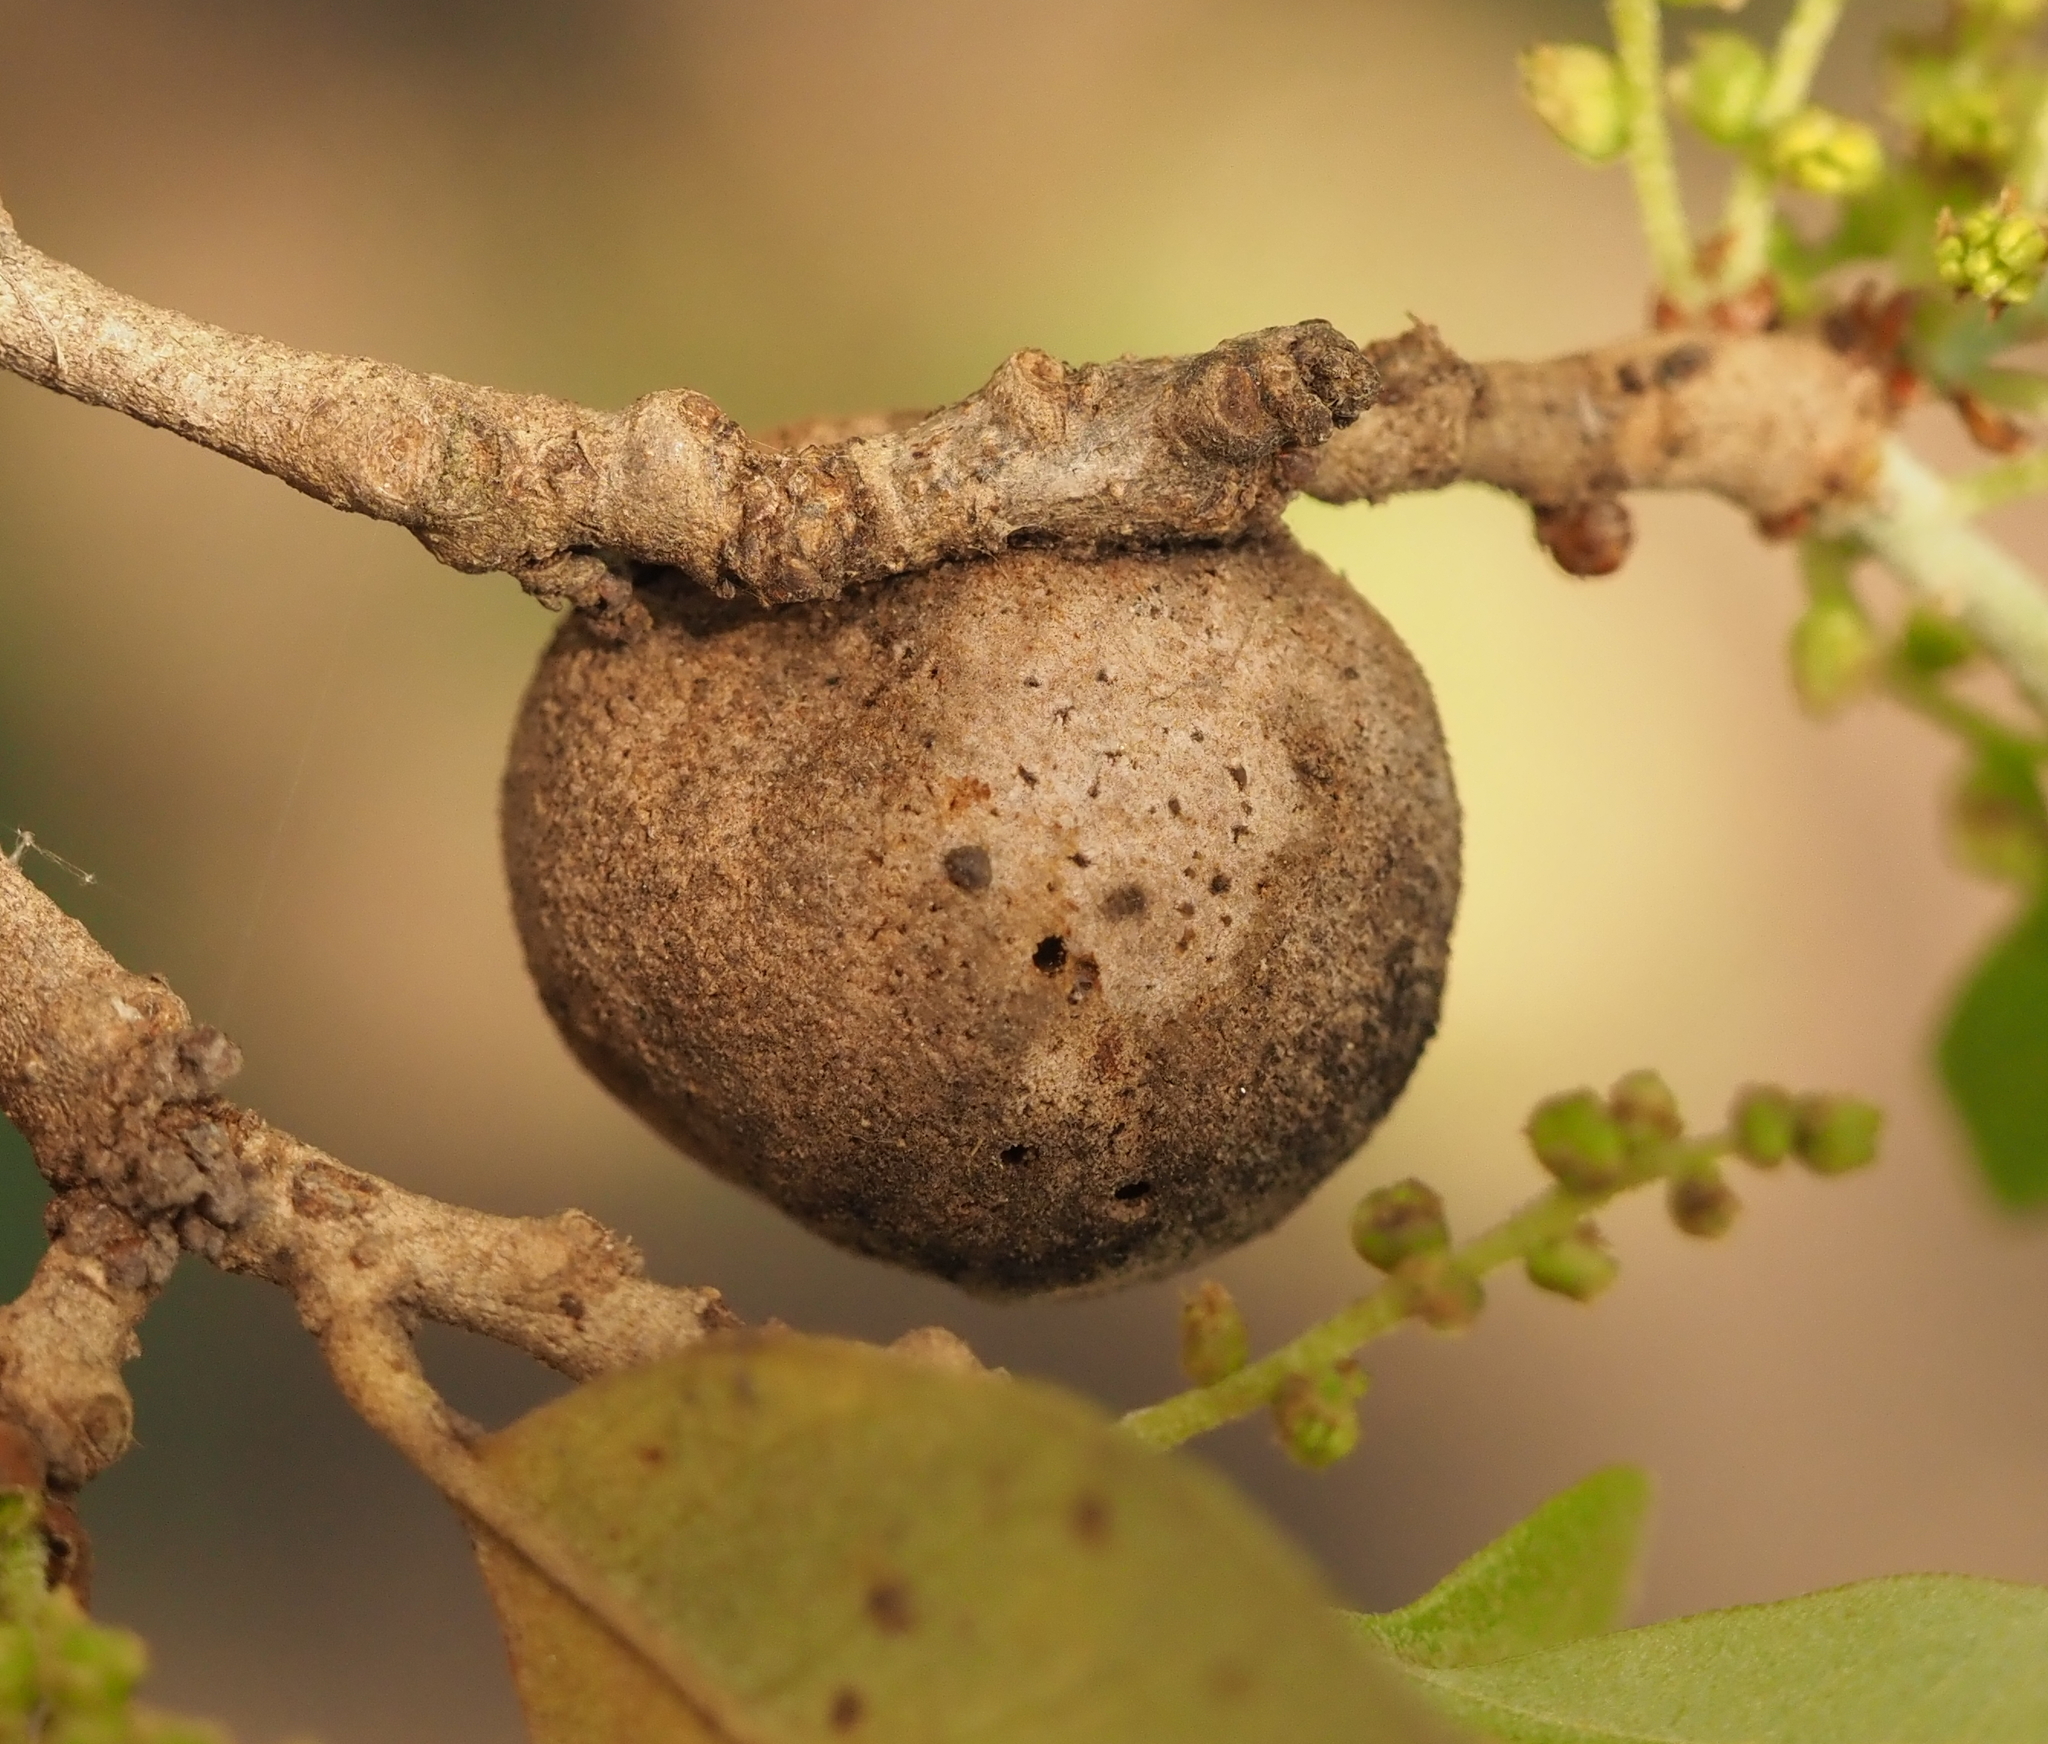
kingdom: Animalia
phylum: Arthropoda
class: Insecta
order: Hymenoptera
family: Cynipidae
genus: Disholcaspis
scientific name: Disholcaspis
